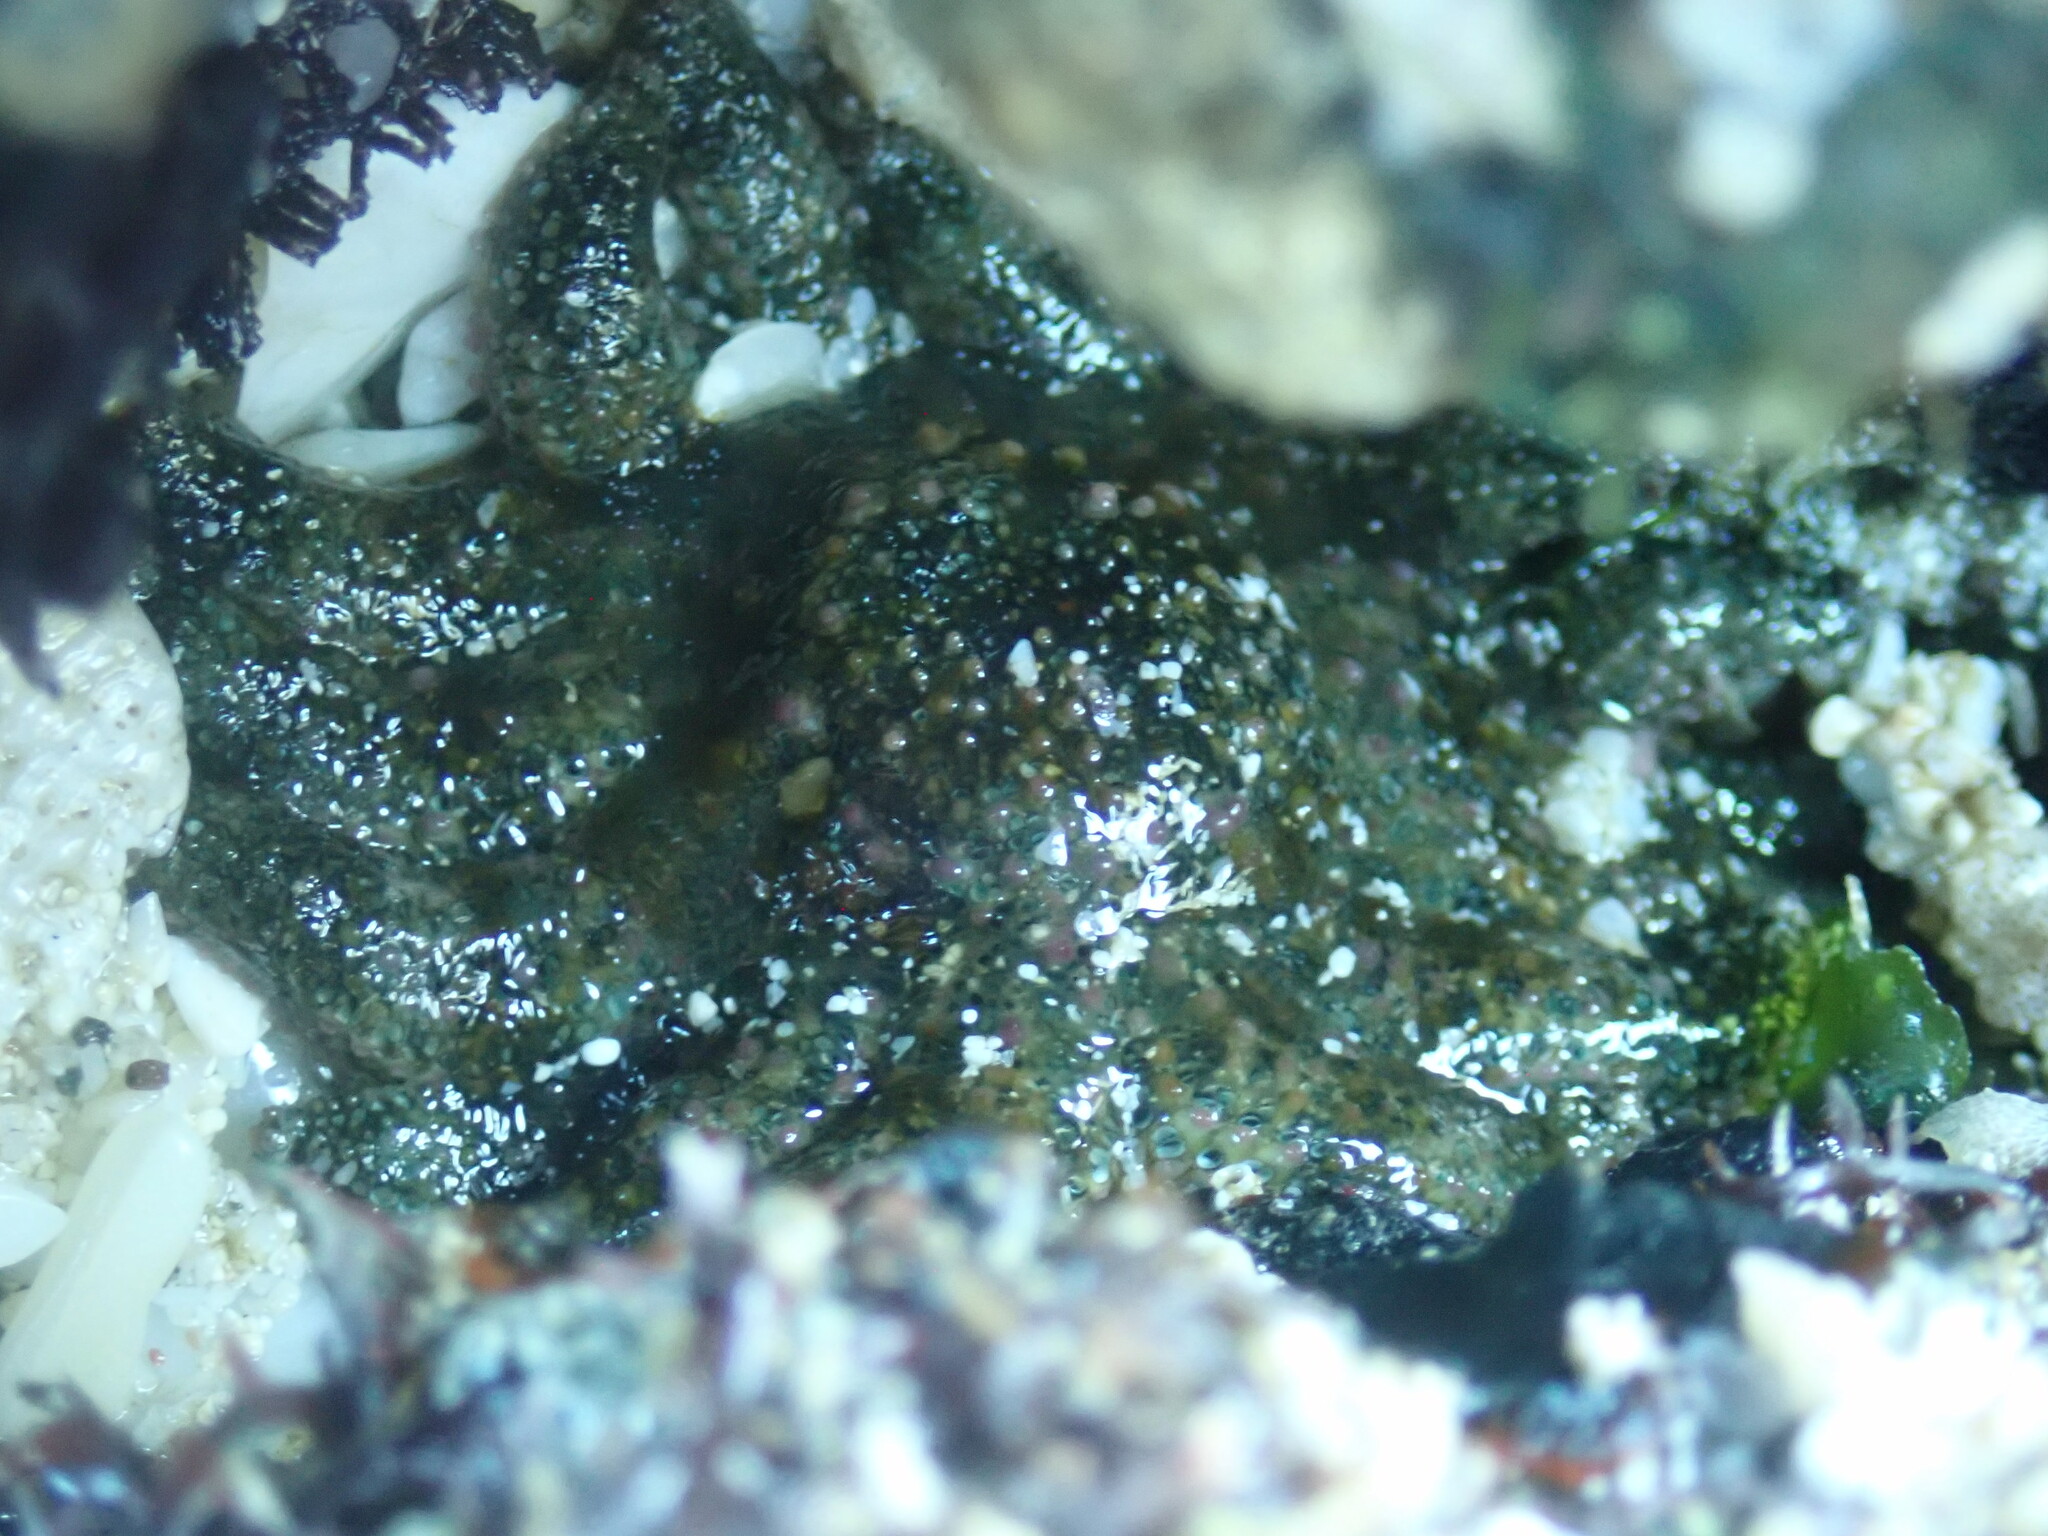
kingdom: Animalia
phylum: Echinodermata
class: Asteroidea
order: Forcipulatida
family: Heliasteridae
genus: Heliaster
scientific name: Heliaster kubiniji
